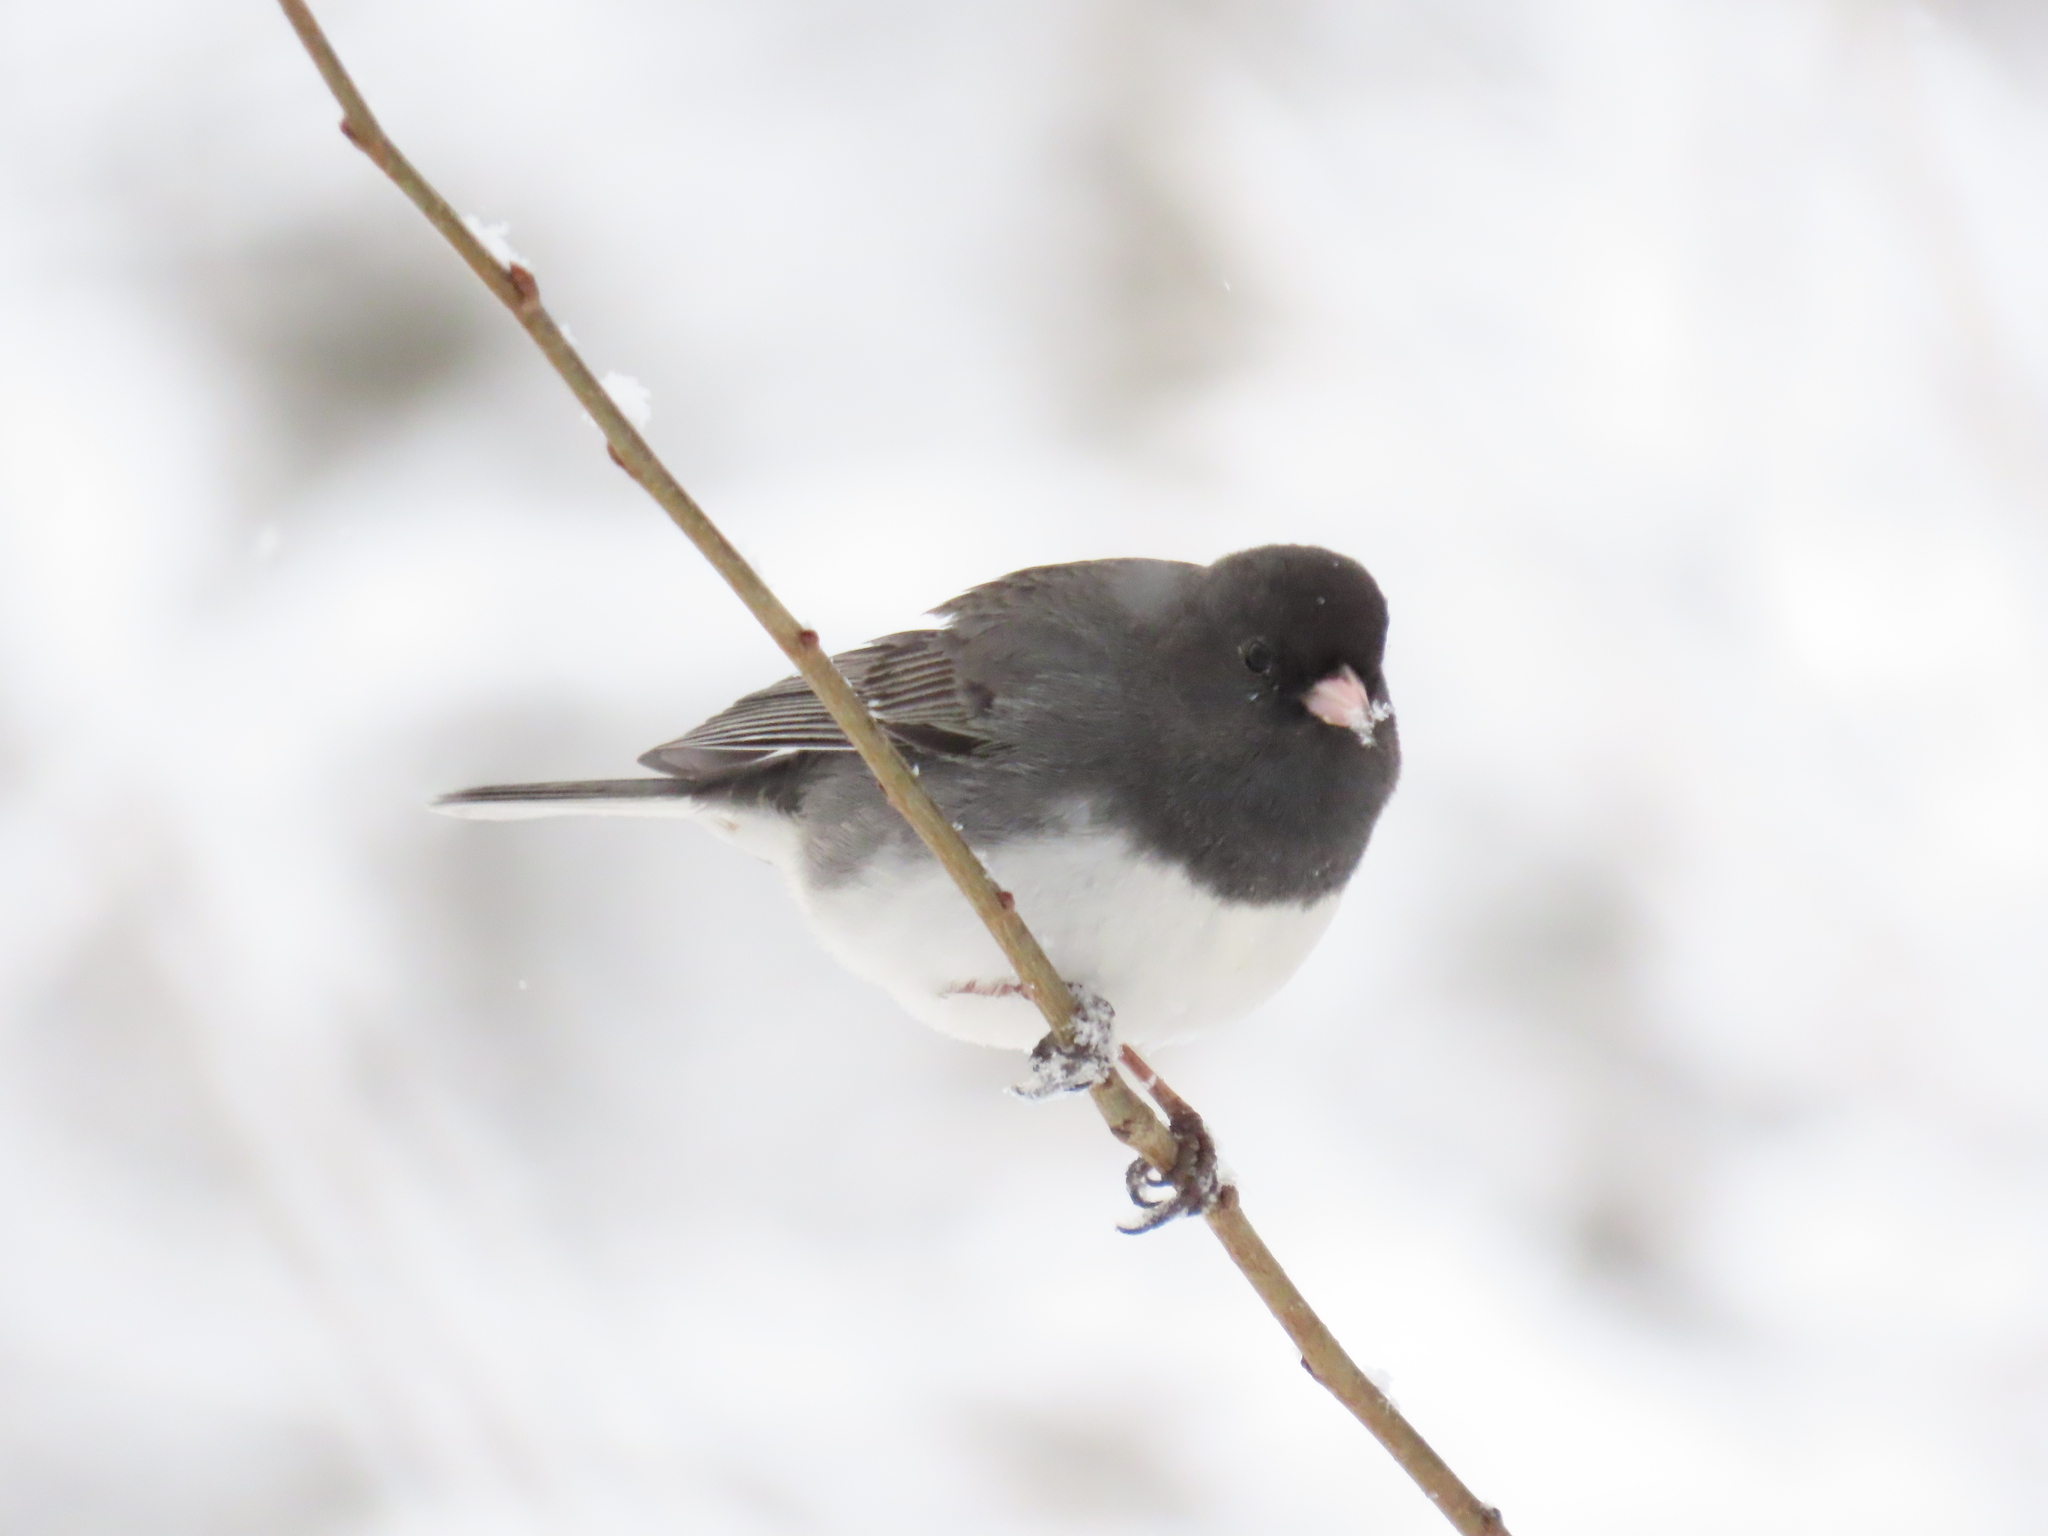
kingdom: Animalia
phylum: Chordata
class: Aves
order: Passeriformes
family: Passerellidae
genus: Junco
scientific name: Junco hyemalis
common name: Dark-eyed junco
